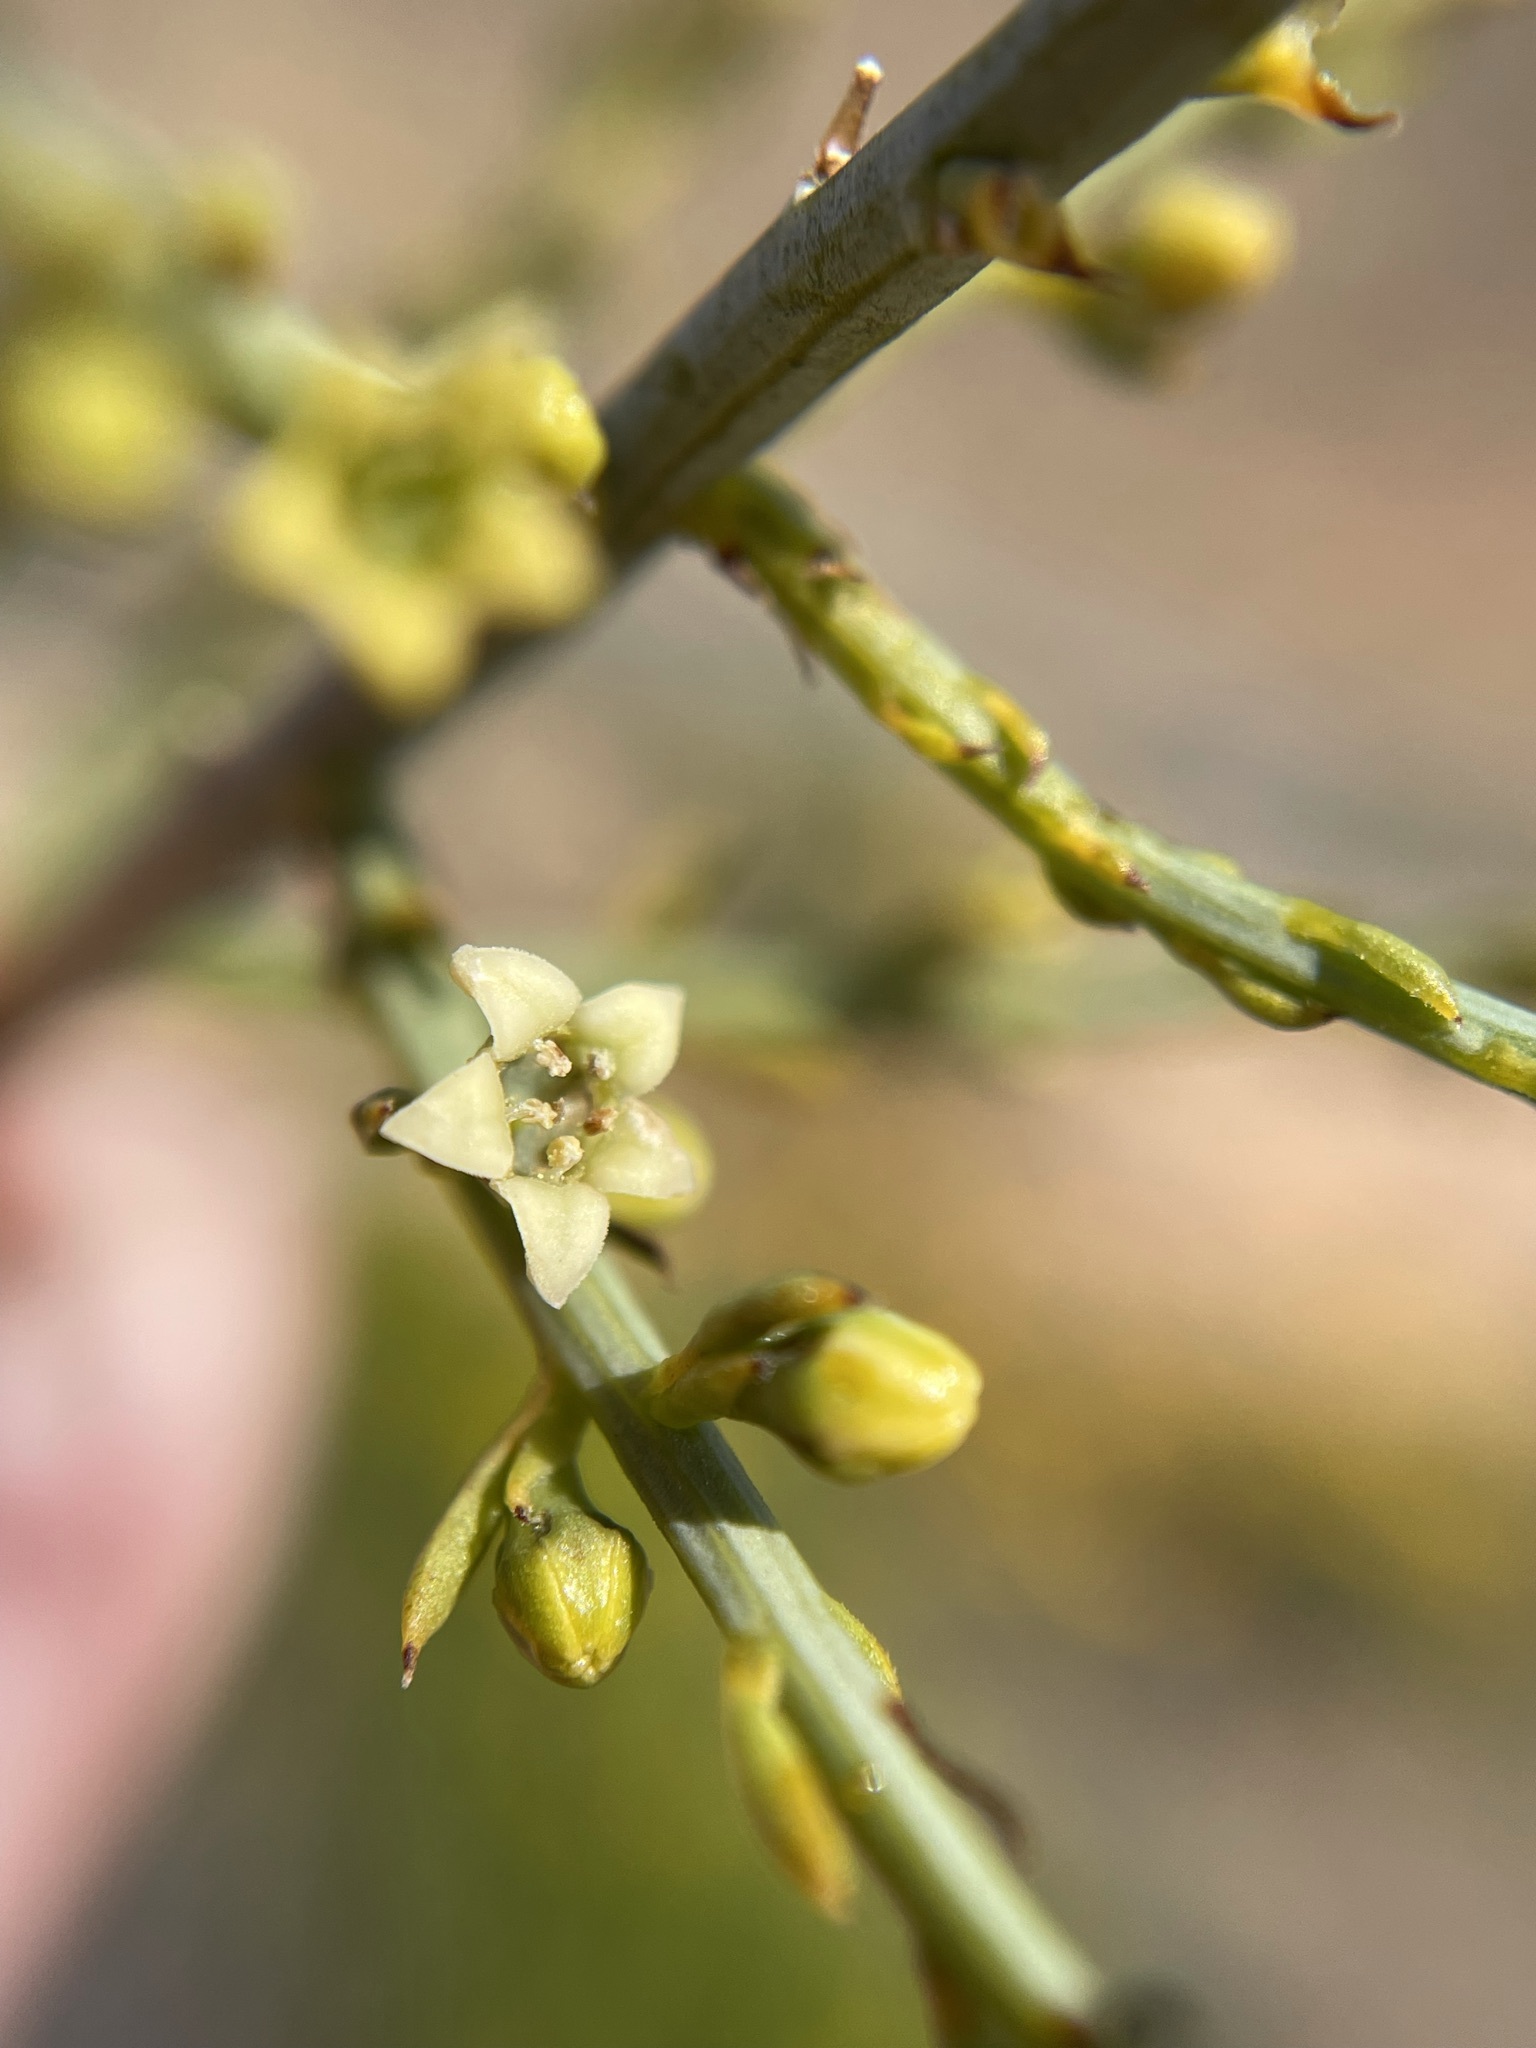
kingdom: Plantae
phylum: Tracheophyta
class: Magnoliopsida
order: Santalales
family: Thesiaceae
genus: Lacomucinaea
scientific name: Lacomucinaea lineata
